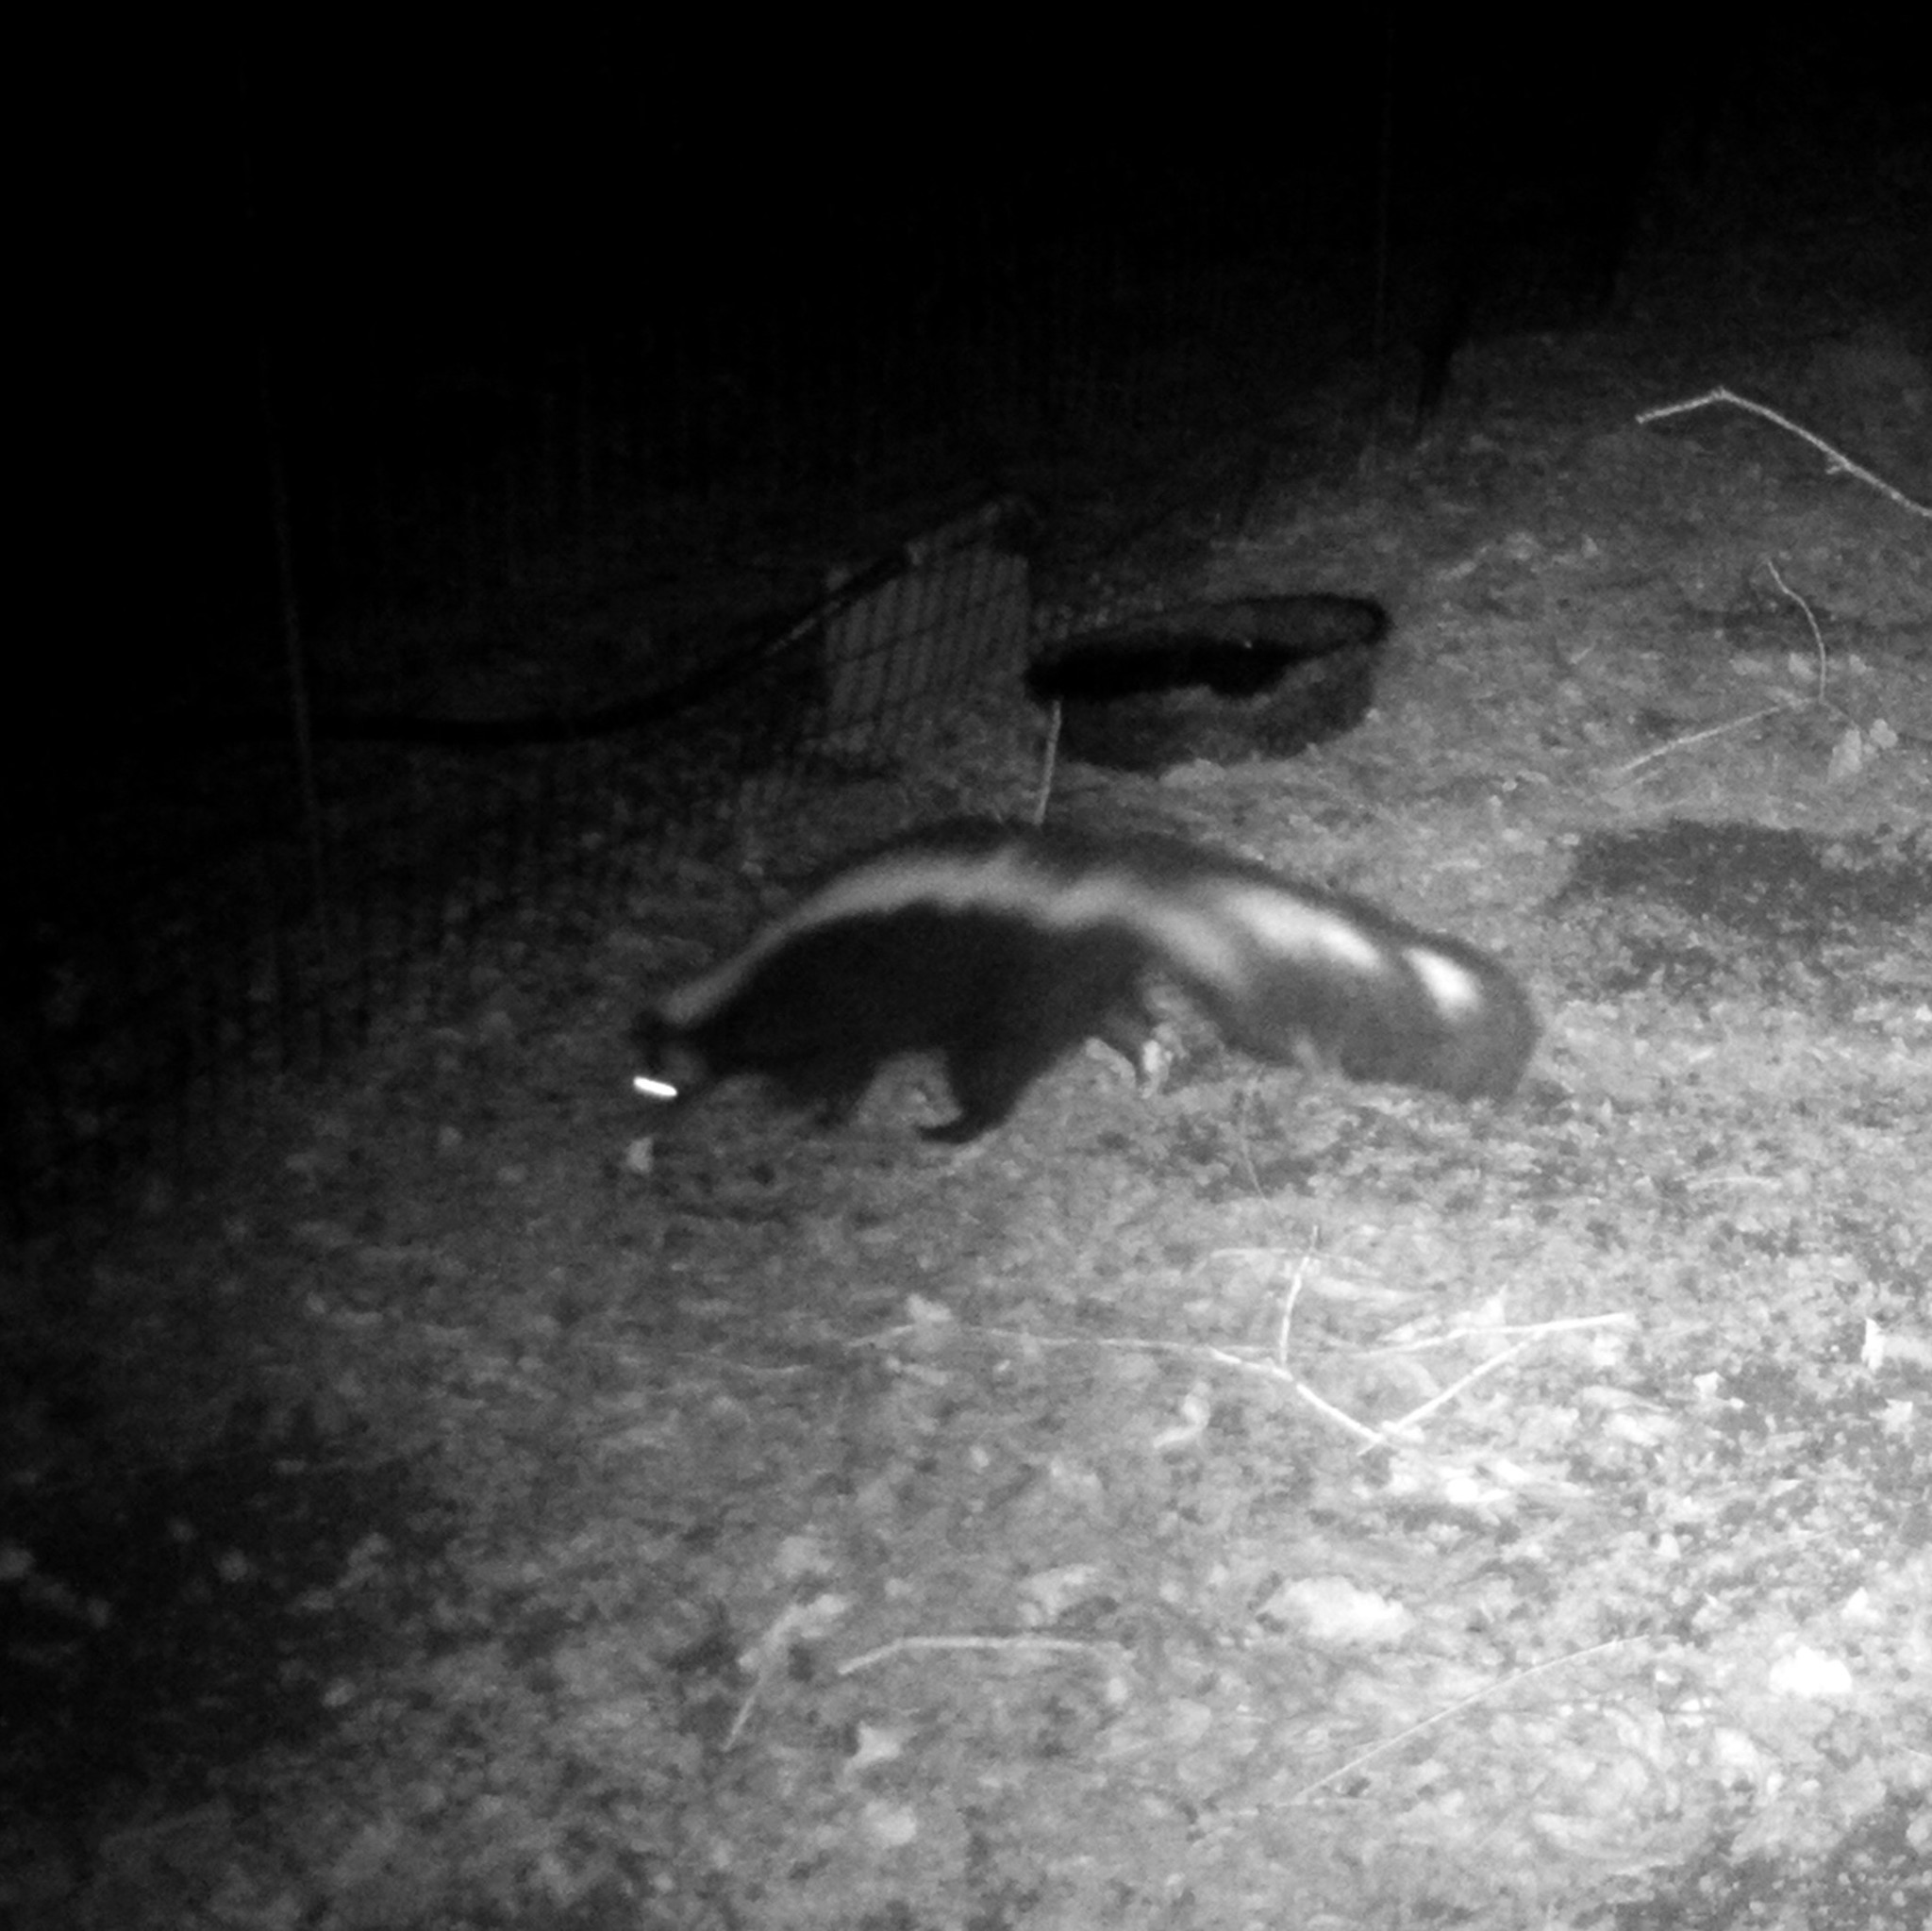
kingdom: Animalia
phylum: Chordata
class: Mammalia
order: Carnivora
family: Mephitidae
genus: Mephitis
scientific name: Mephitis mephitis
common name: Striped skunk
